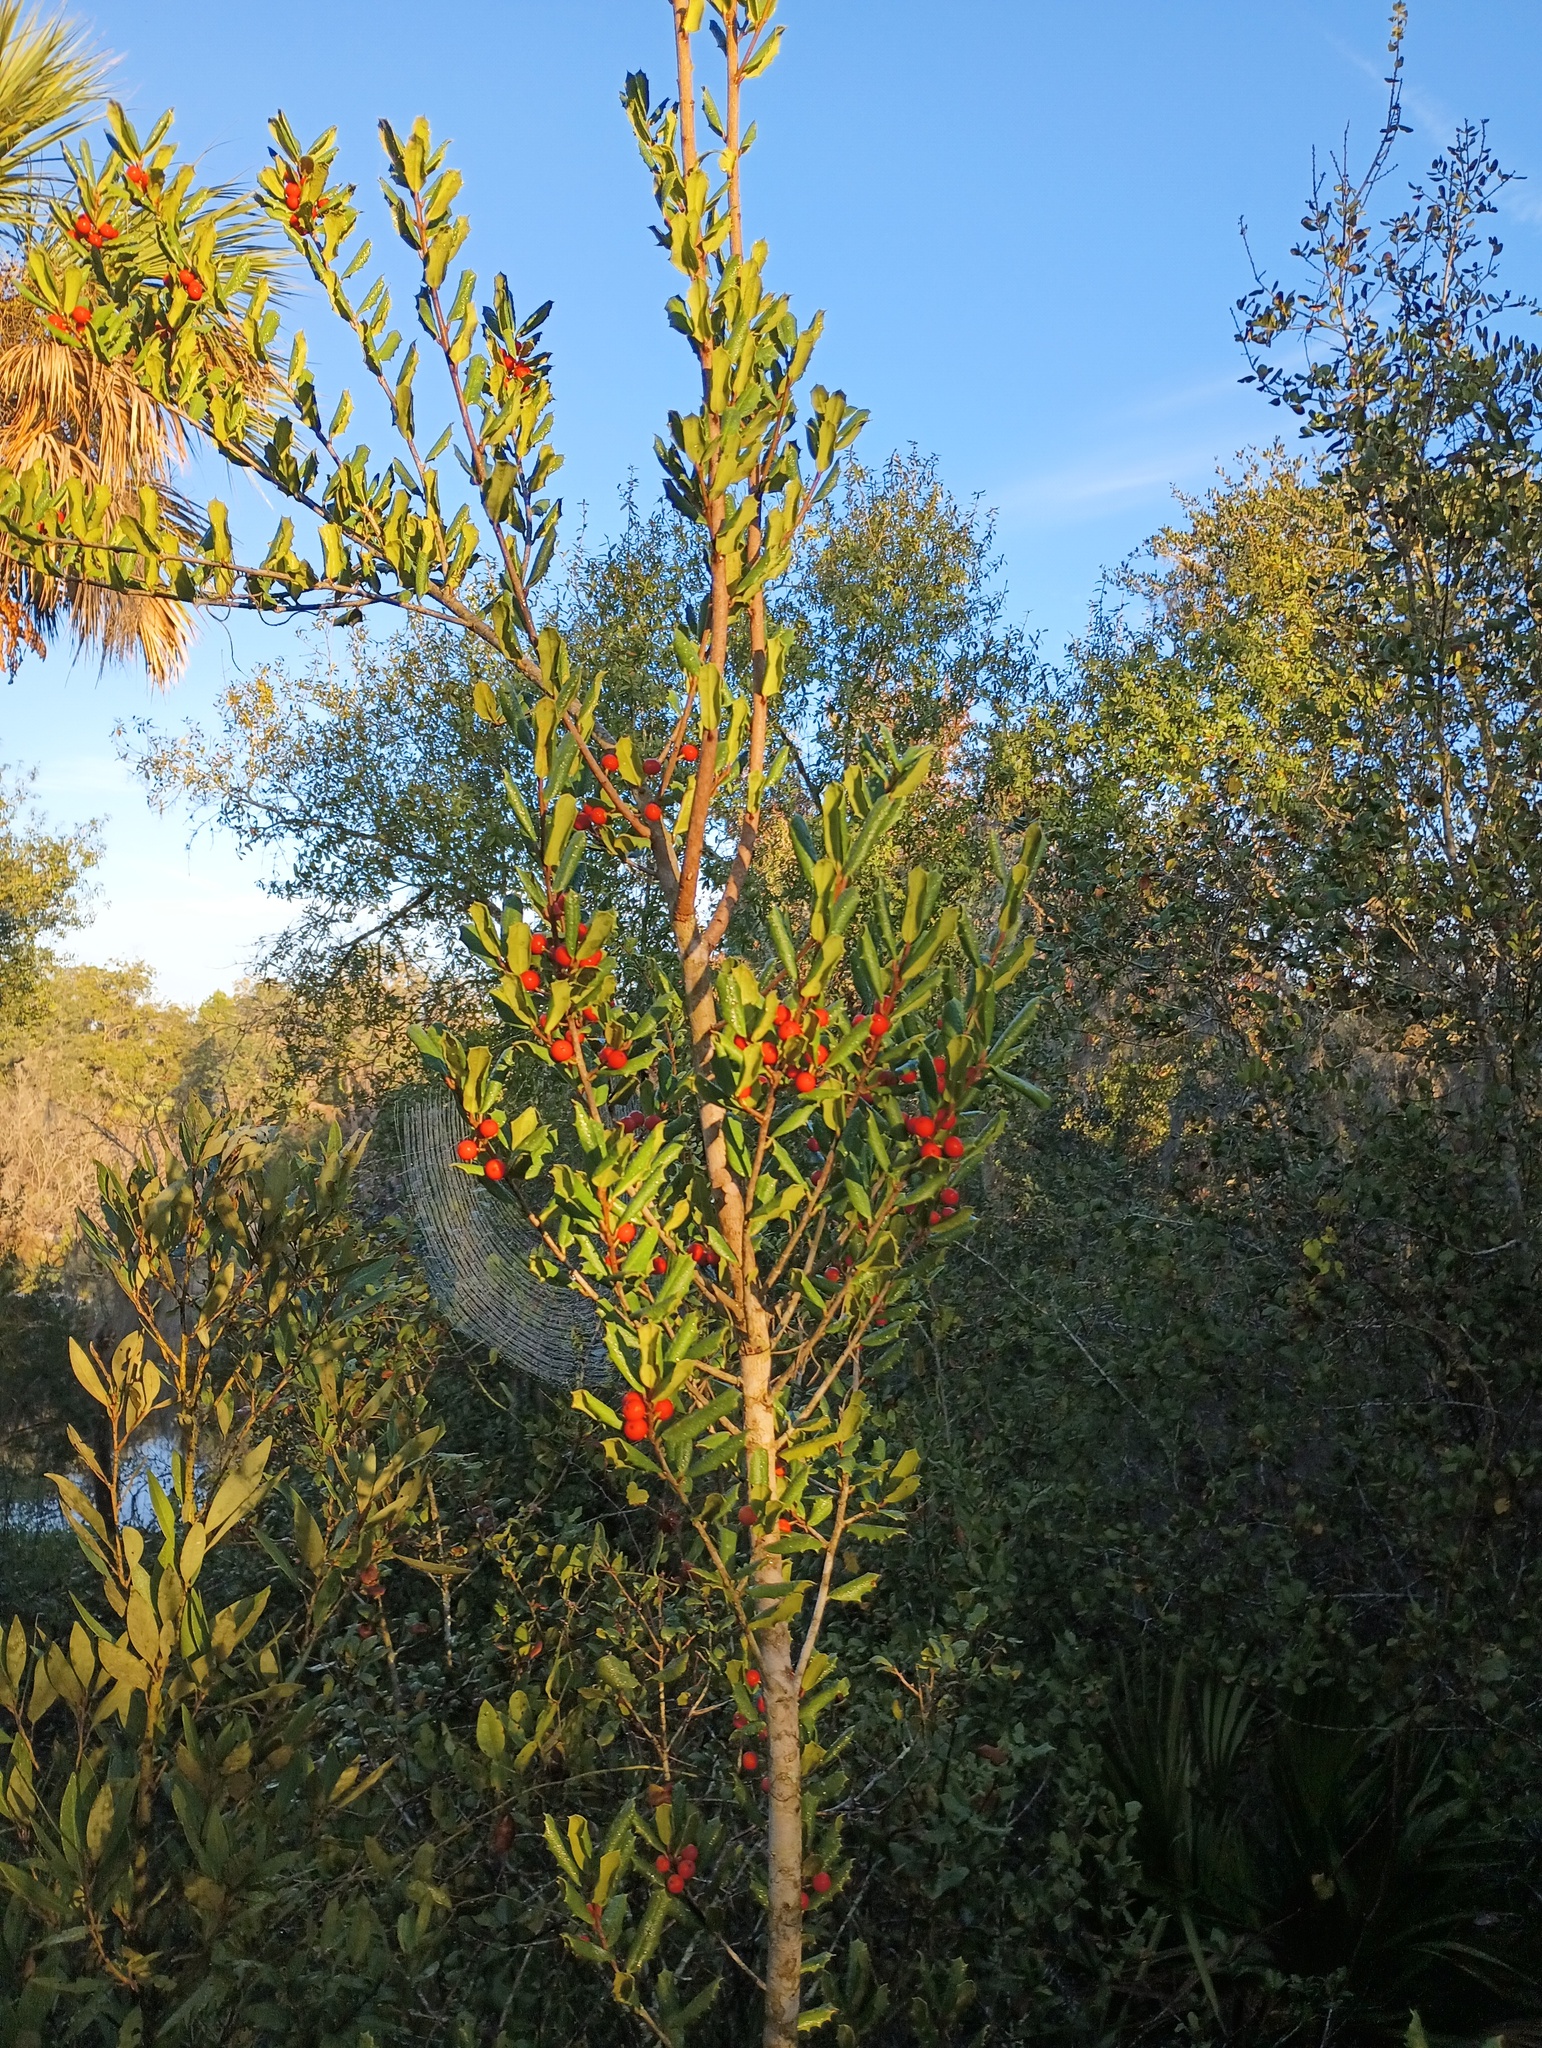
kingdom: Plantae
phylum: Tracheophyta
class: Magnoliopsida
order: Aquifoliales
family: Aquifoliaceae
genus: Ilex
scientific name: Ilex opaca
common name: American holly
